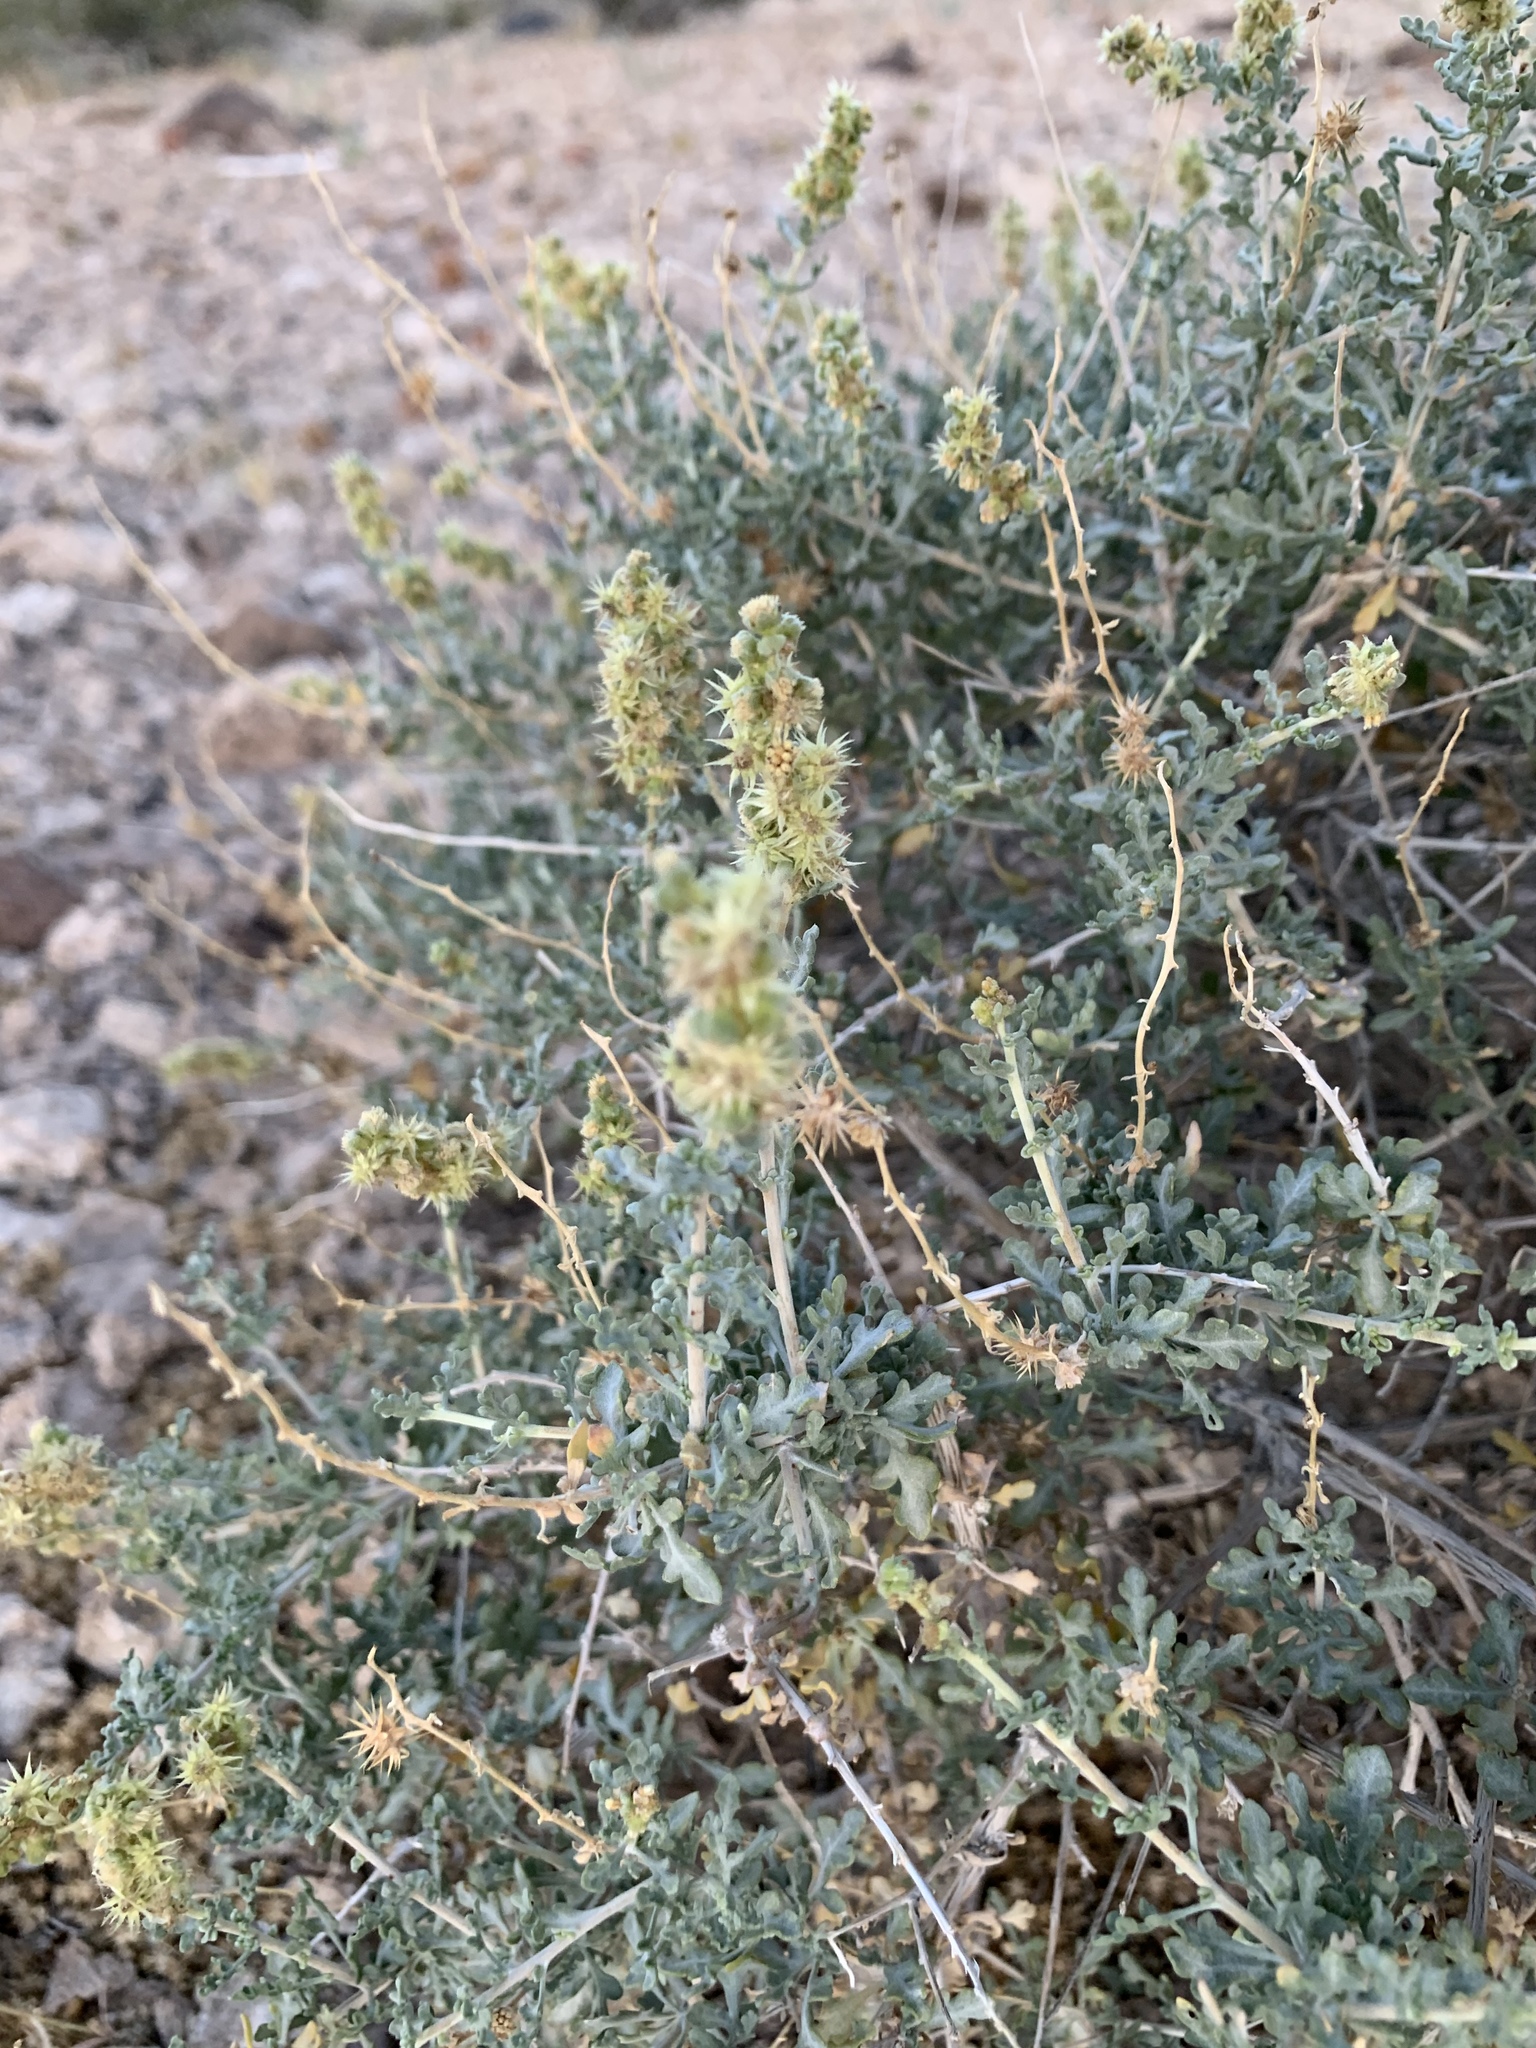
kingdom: Plantae
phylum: Tracheophyta
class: Magnoliopsida
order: Asterales
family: Asteraceae
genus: Ambrosia
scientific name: Ambrosia dumosa
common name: Bur-sage
